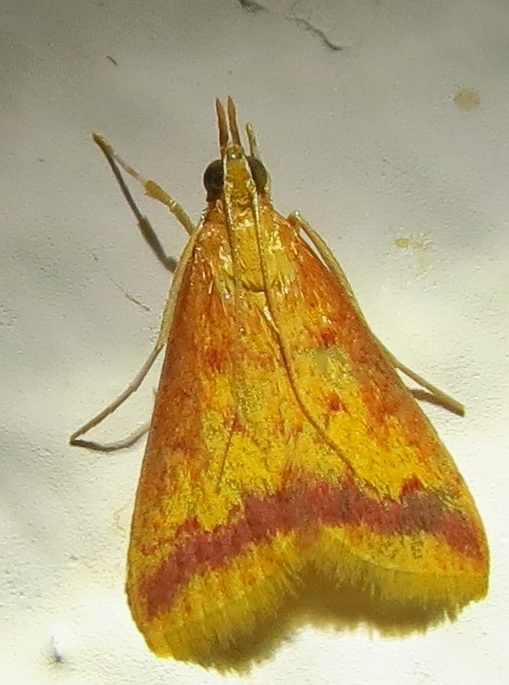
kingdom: Animalia
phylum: Arthropoda
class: Insecta
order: Lepidoptera
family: Crambidae
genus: Hyalorista
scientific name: Hyalorista taeniolalis
